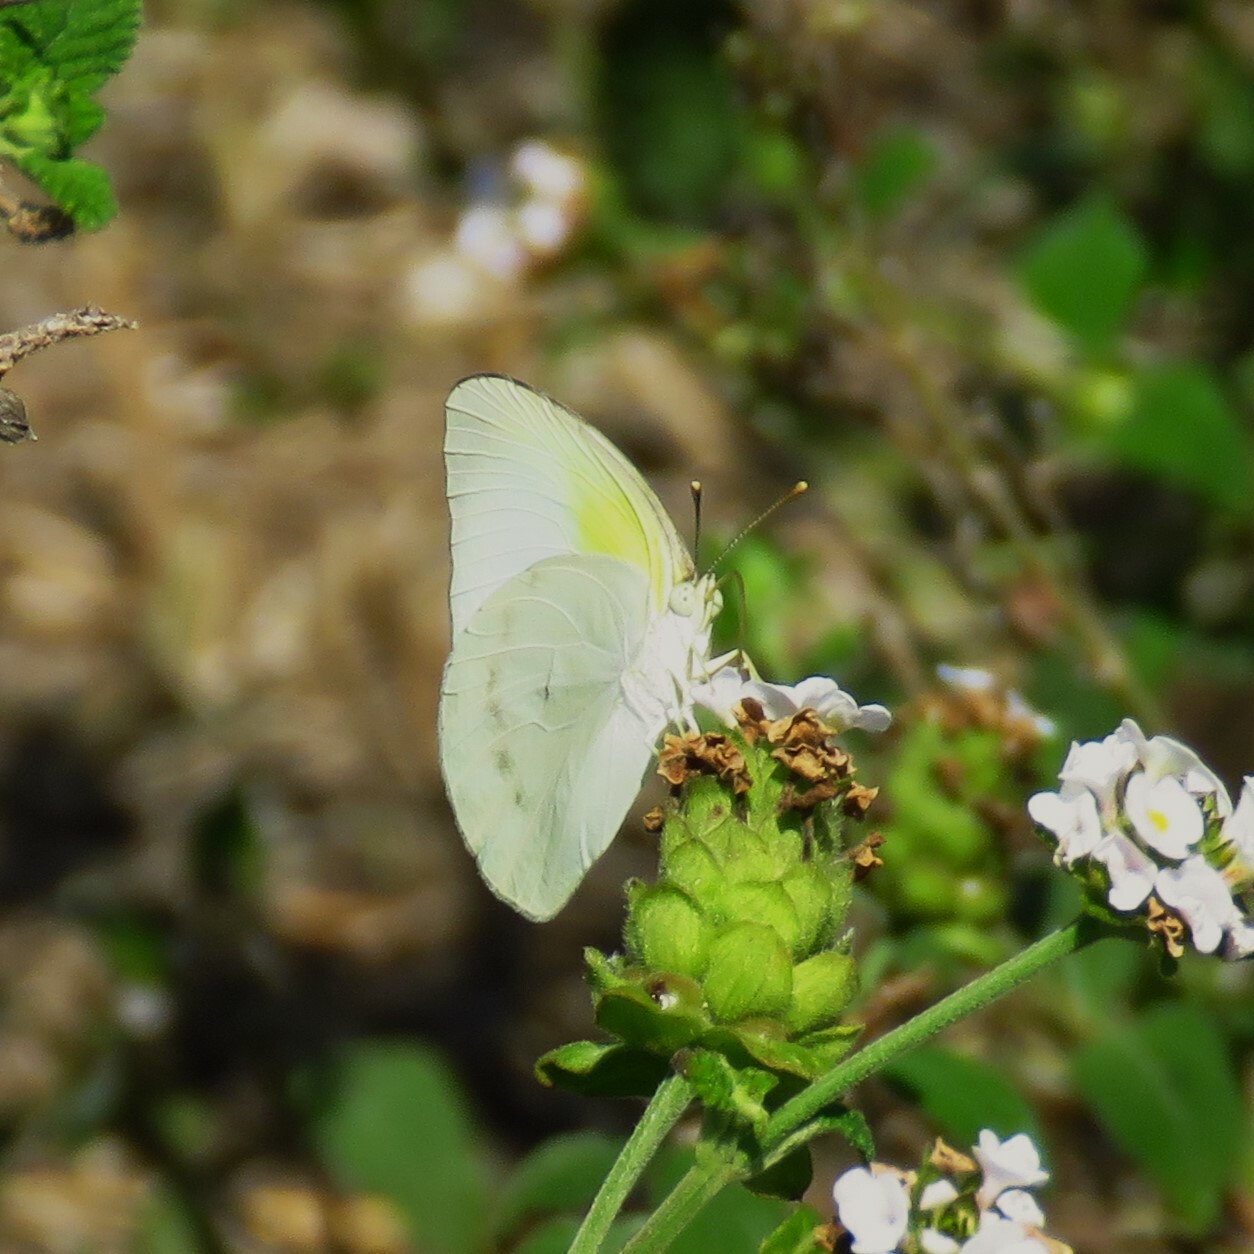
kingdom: Animalia
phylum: Arthropoda
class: Insecta
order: Lepidoptera
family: Pieridae
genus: Kricogonia
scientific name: Kricogonia lyside
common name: Guayacan sulphur,
